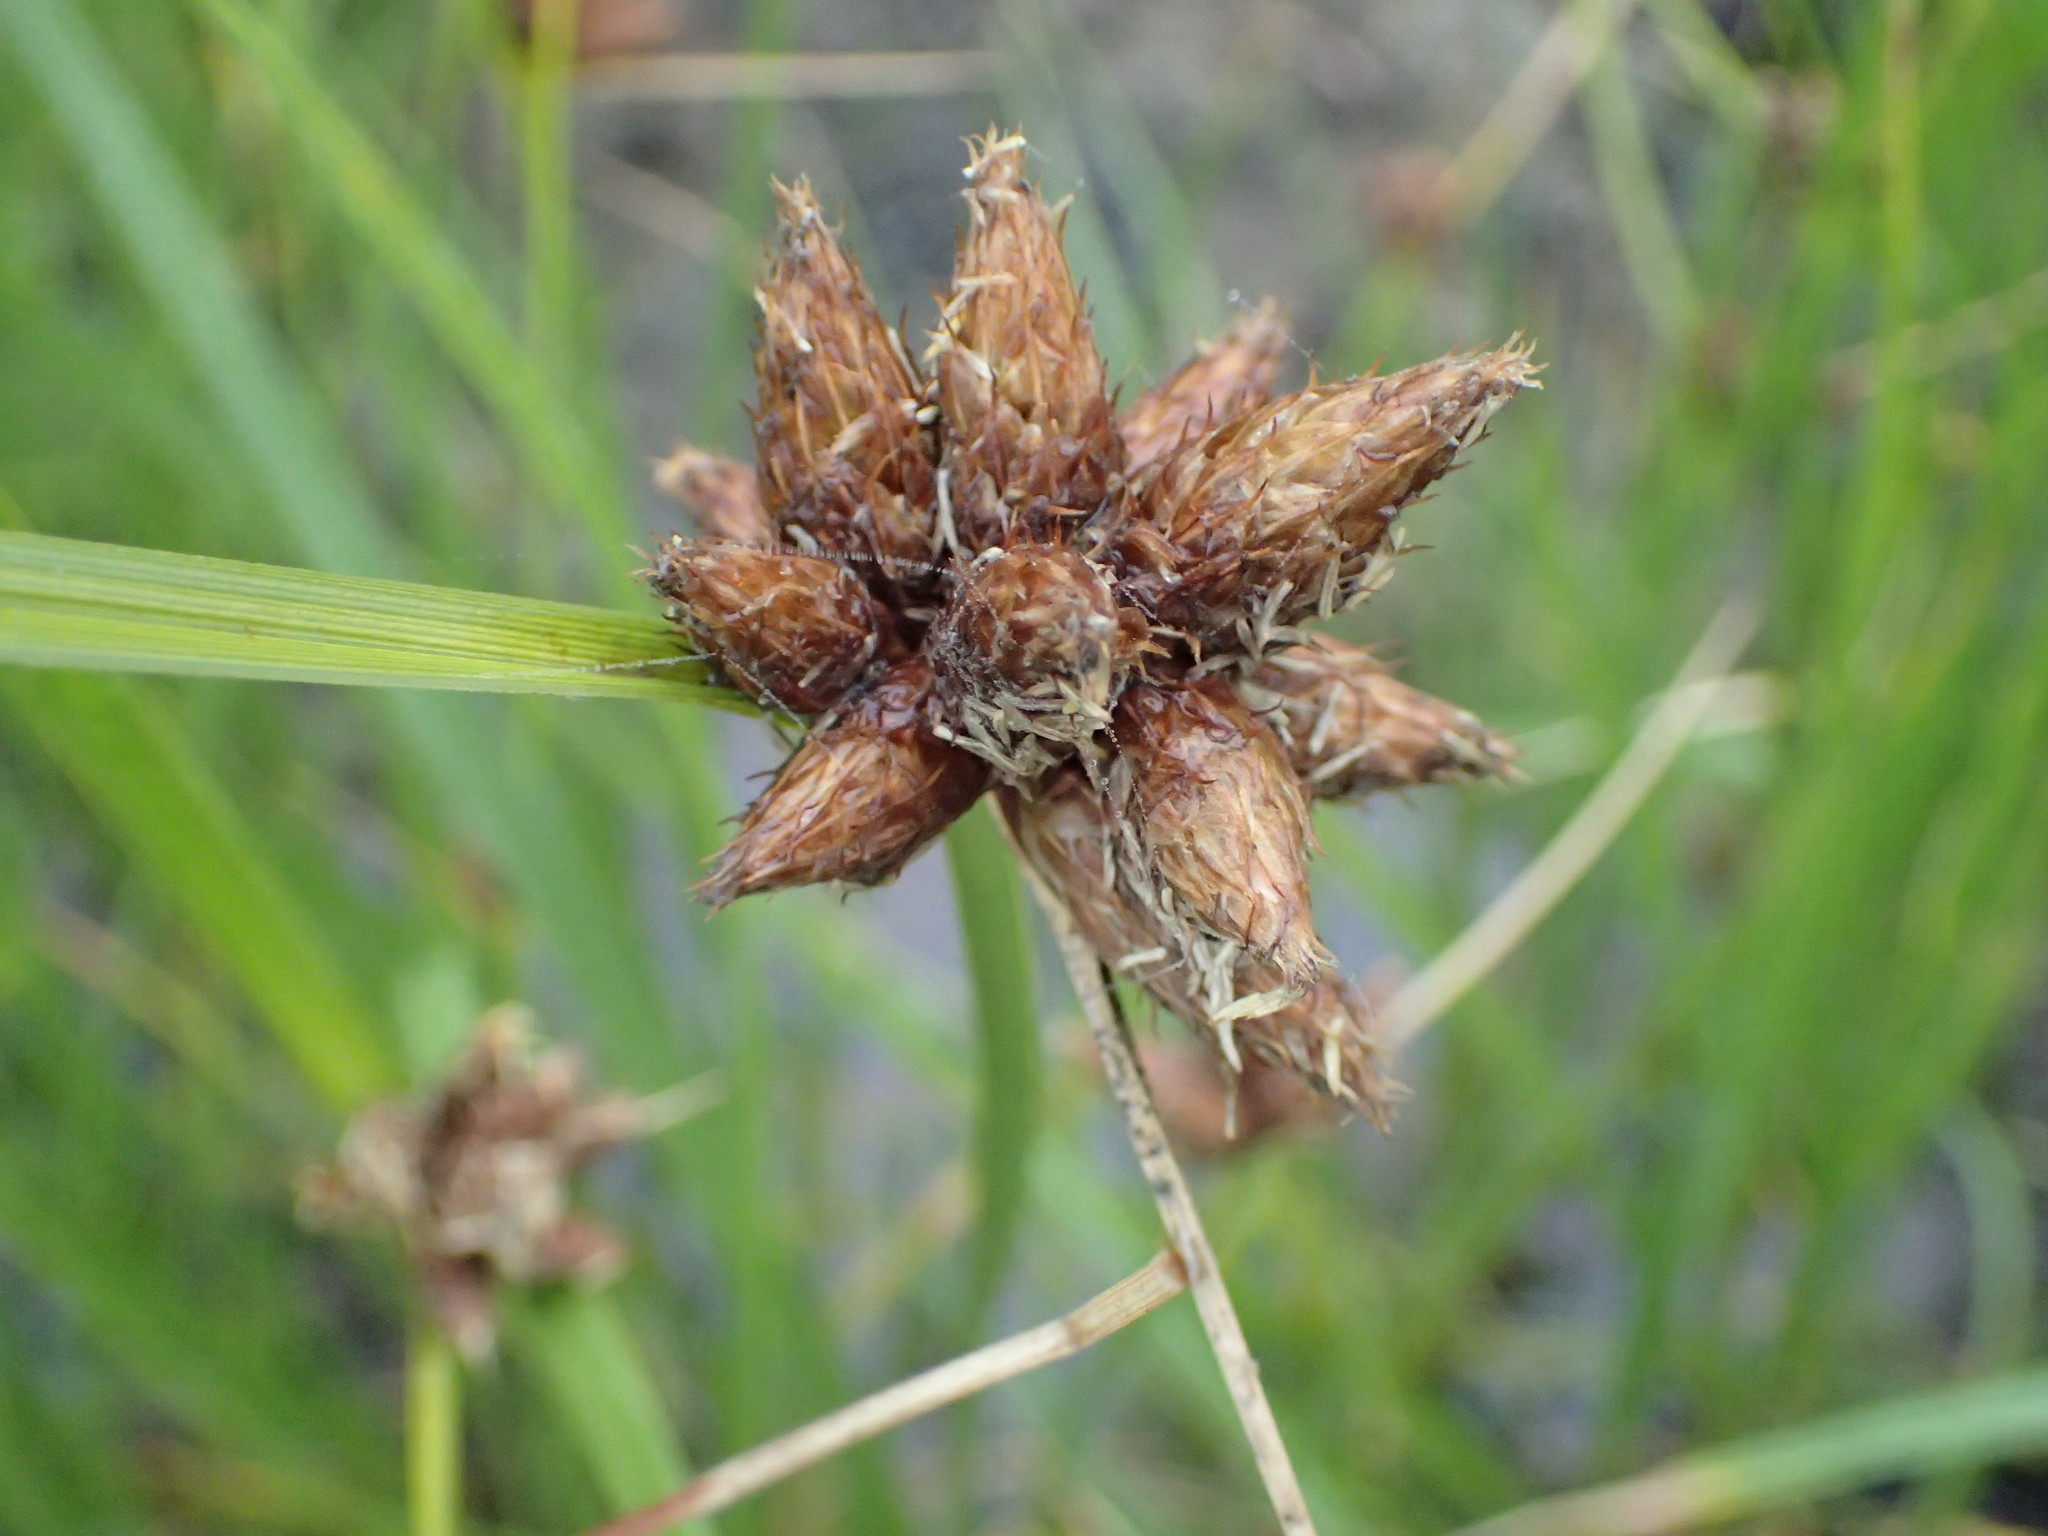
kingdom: Plantae
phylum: Tracheophyta
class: Liliopsida
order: Poales
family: Cyperaceae
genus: Bolboschoenus
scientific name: Bolboschoenus maritimus
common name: Sea club-rush
